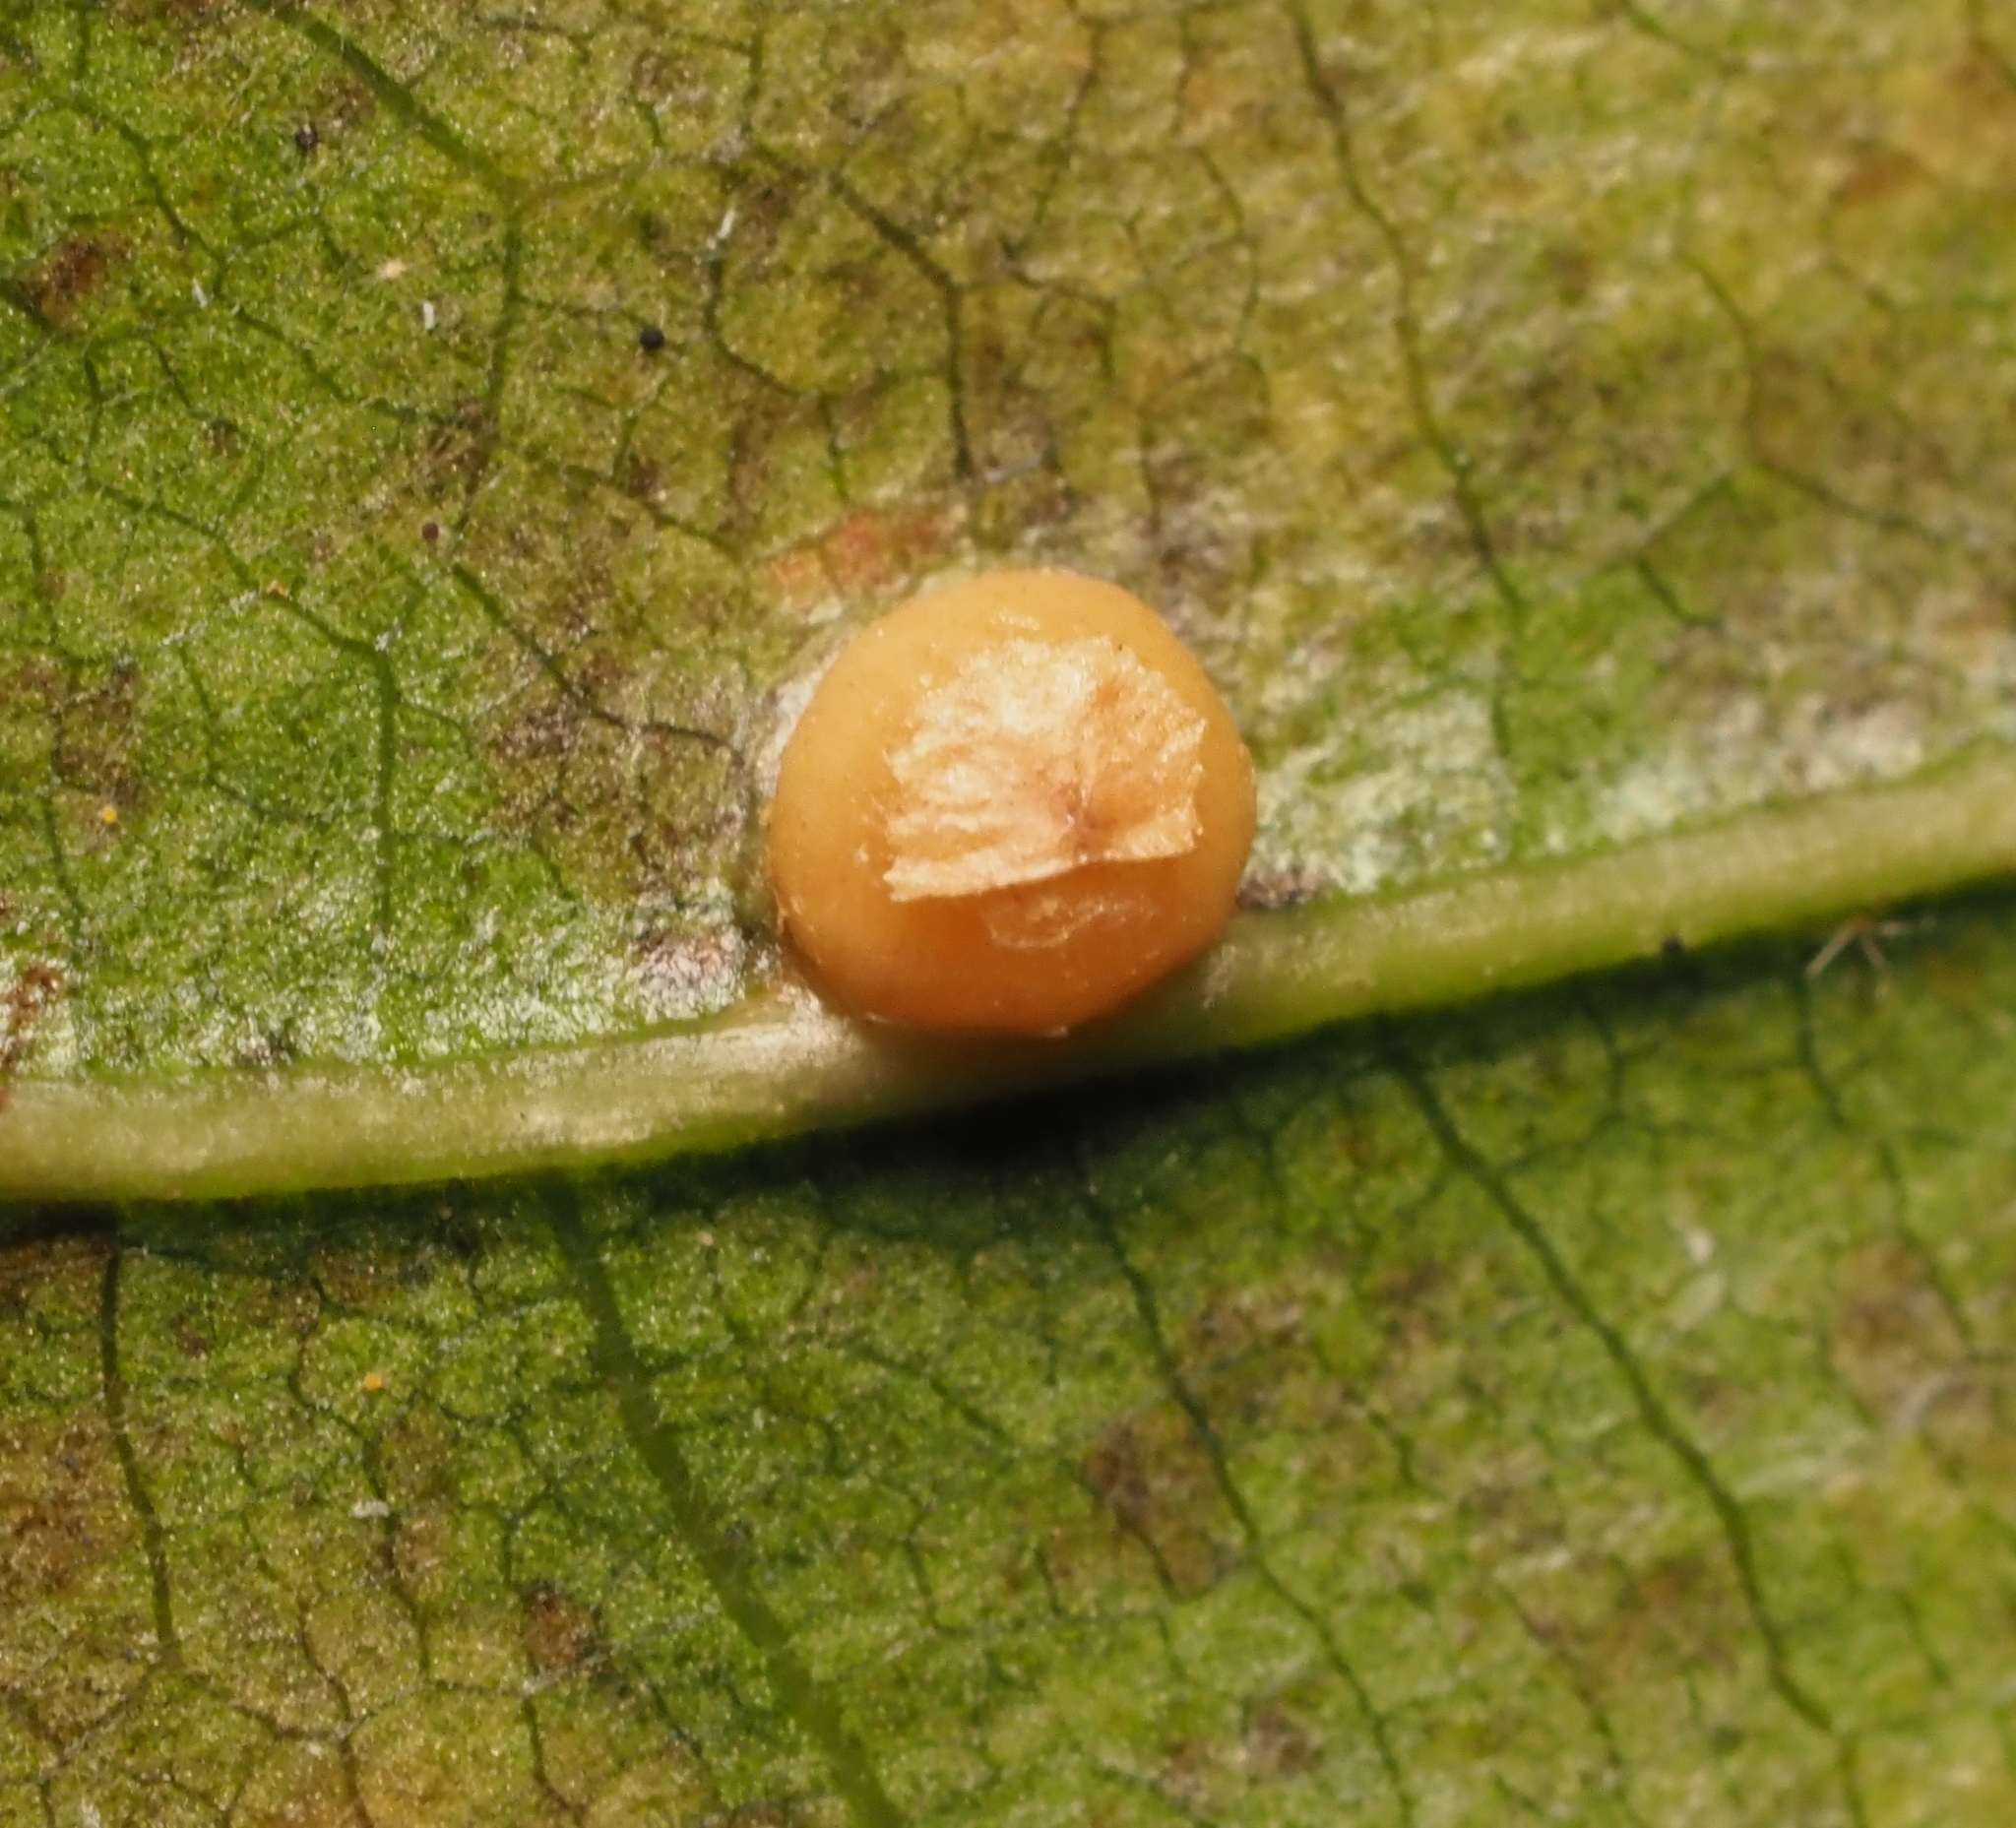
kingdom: Animalia
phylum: Arthropoda
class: Insecta
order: Diptera
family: Cecidomyiidae
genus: Polystepha
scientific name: Polystepha globosa
